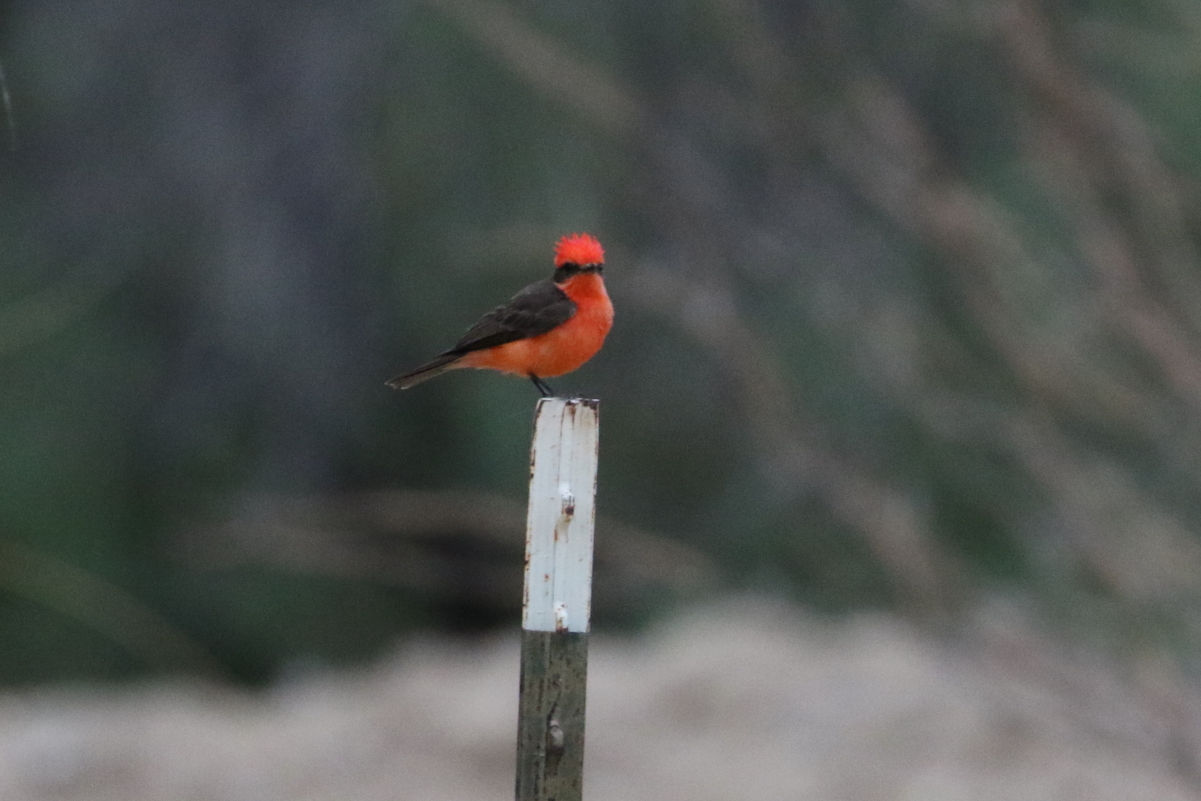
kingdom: Animalia
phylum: Chordata
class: Aves
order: Passeriformes
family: Tyrannidae
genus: Pyrocephalus
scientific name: Pyrocephalus rubinus
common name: Vermilion flycatcher
